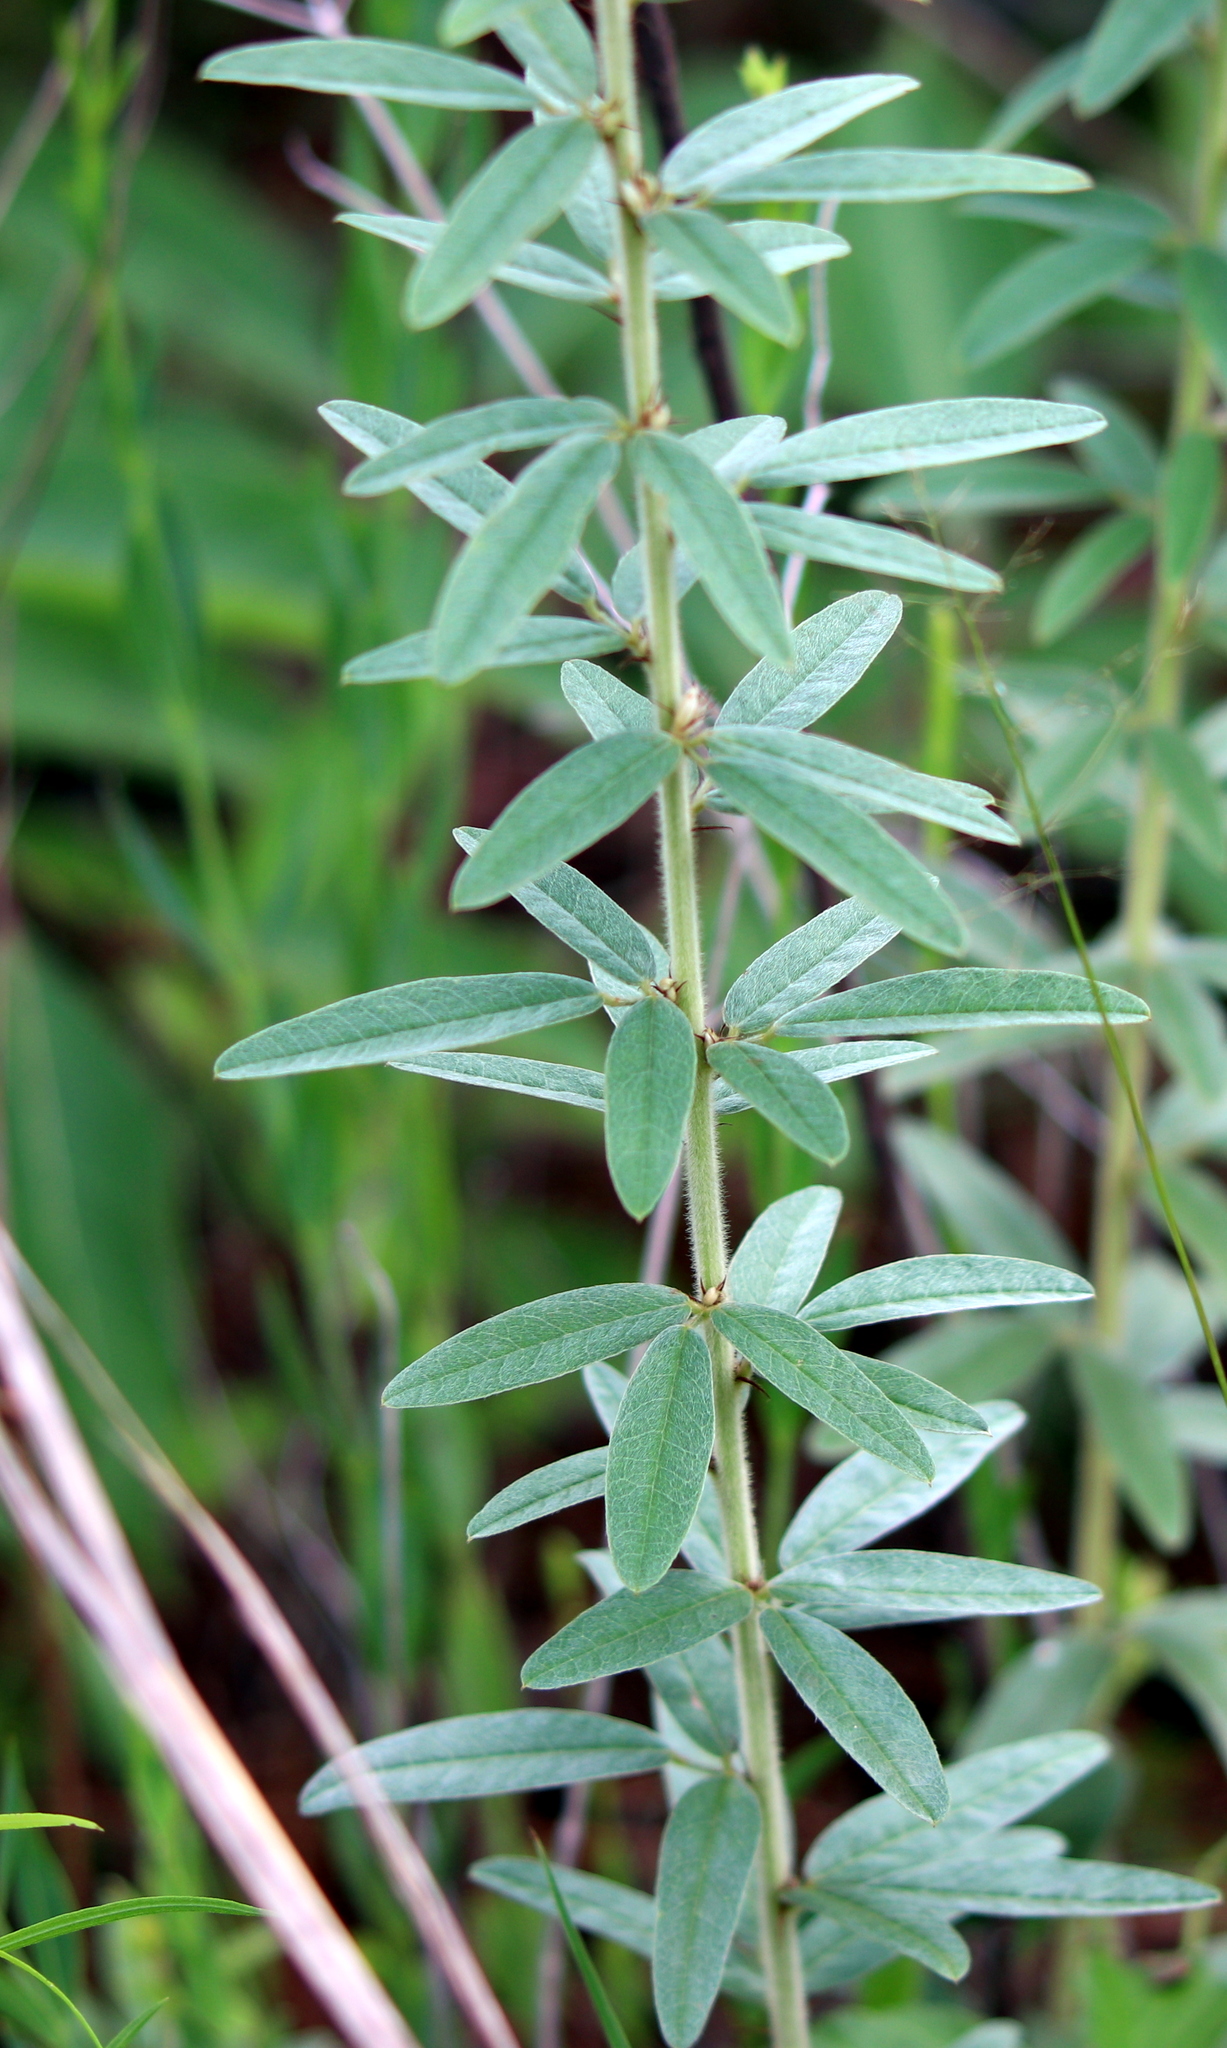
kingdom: Plantae
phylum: Tracheophyta
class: Magnoliopsida
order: Fabales
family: Fabaceae
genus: Lespedeza
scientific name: Lespedeza capitata
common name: Dusty clover
